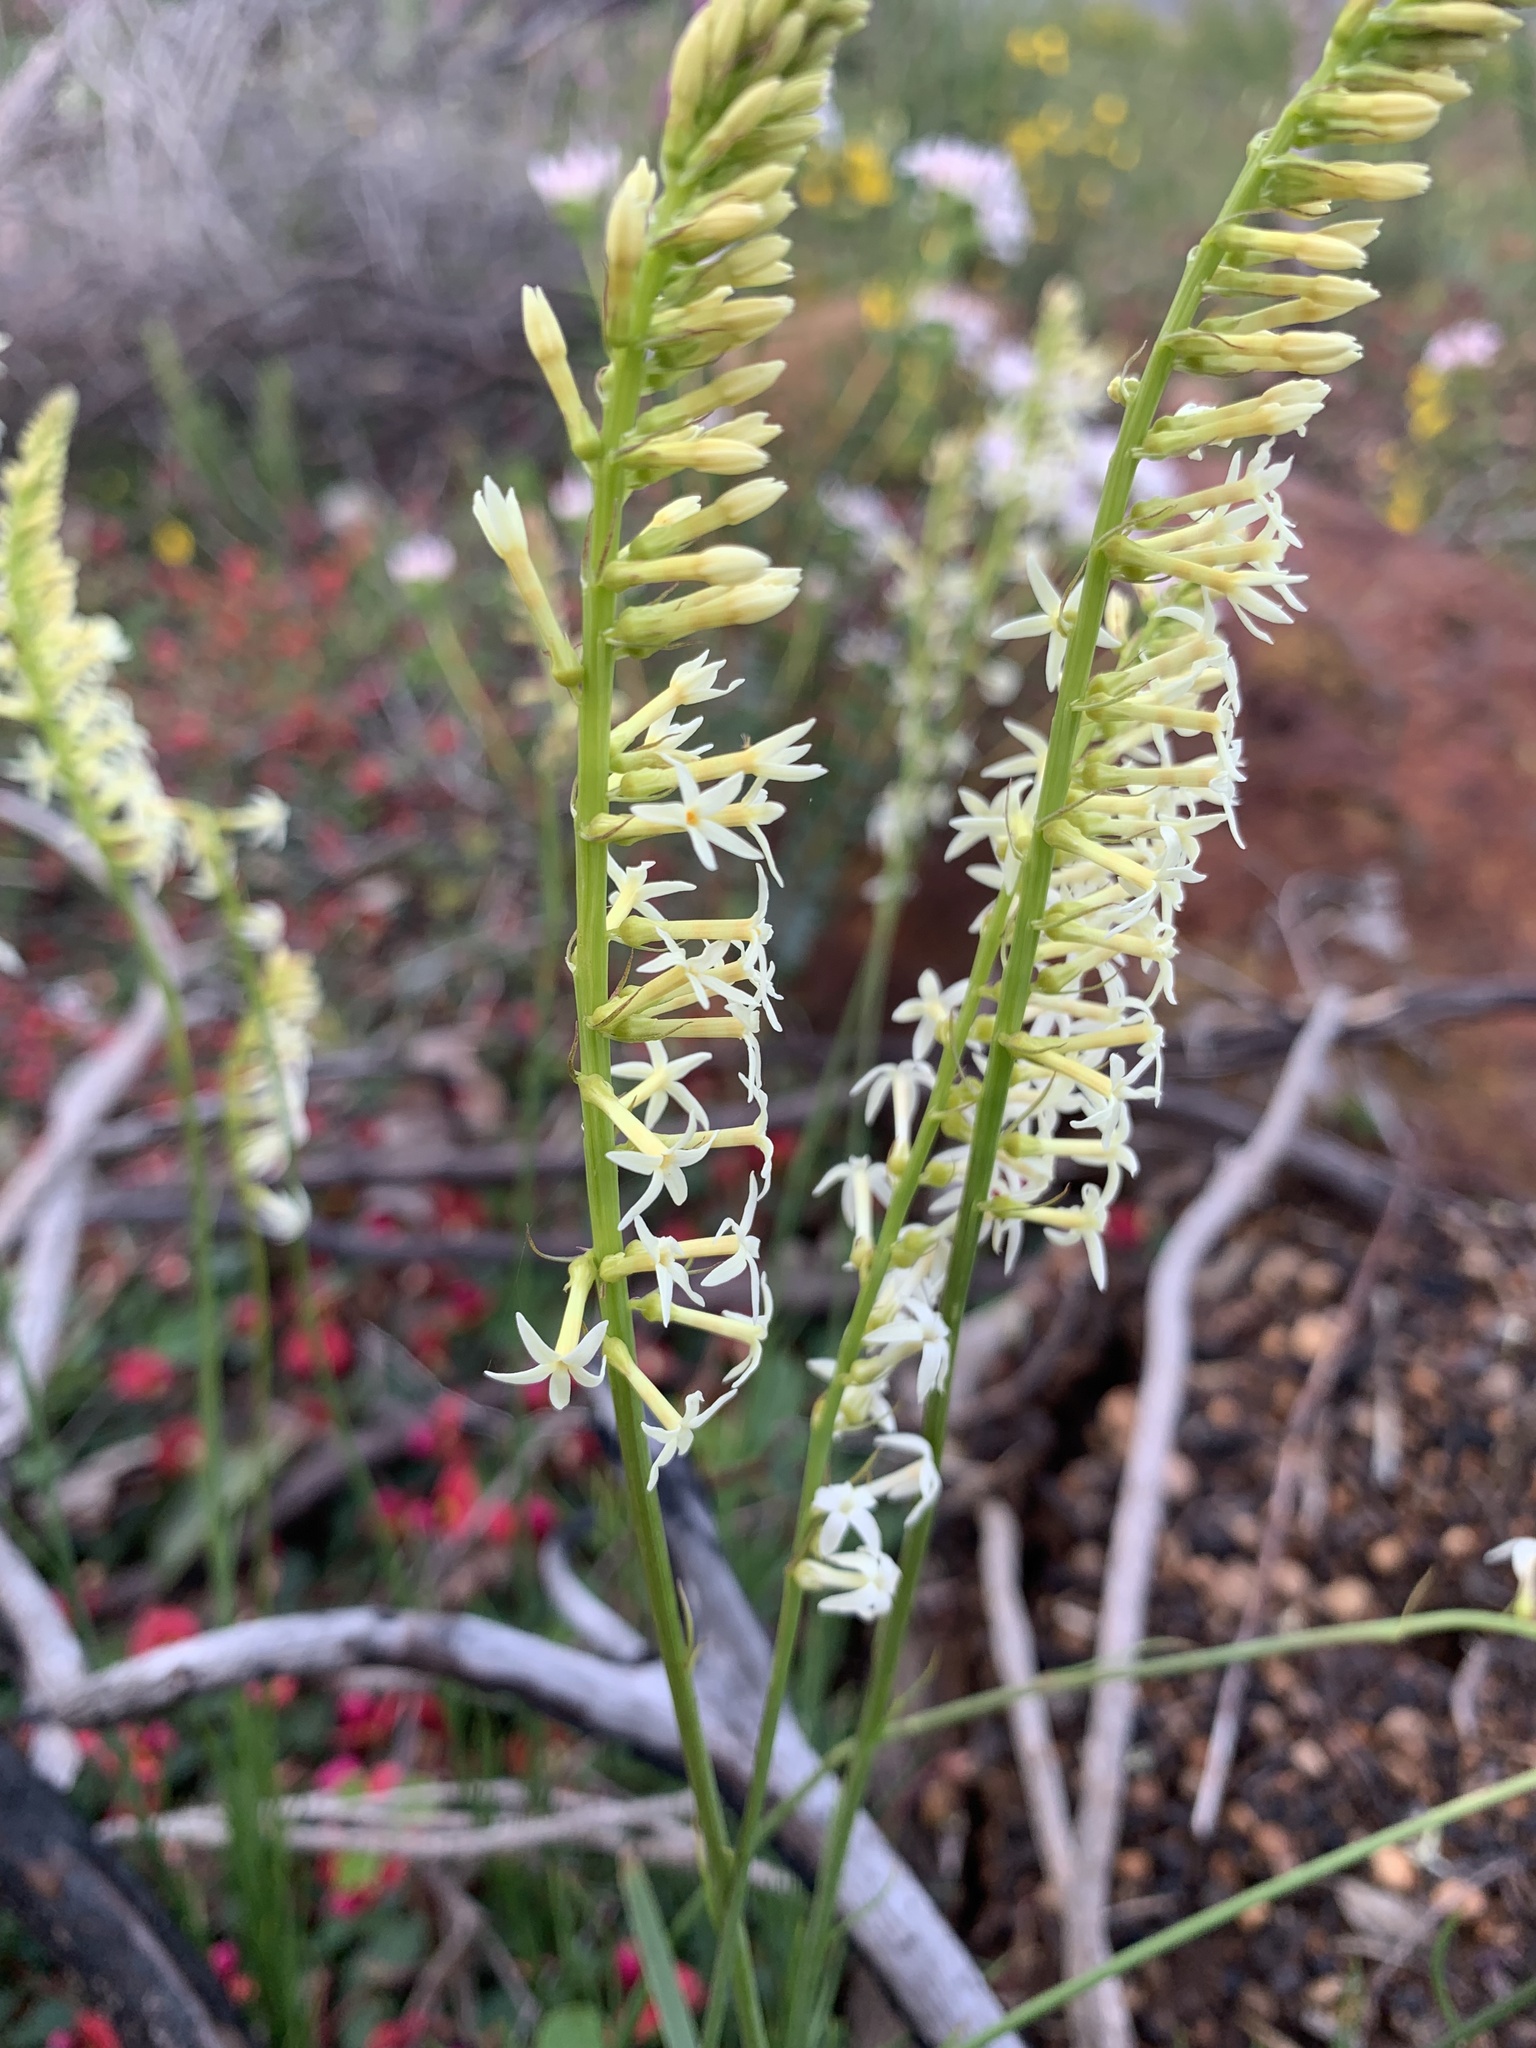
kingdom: Plantae
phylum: Tracheophyta
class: Magnoliopsida
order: Celastrales
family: Celastraceae
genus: Stackhousia
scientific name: Stackhousia monogyna
